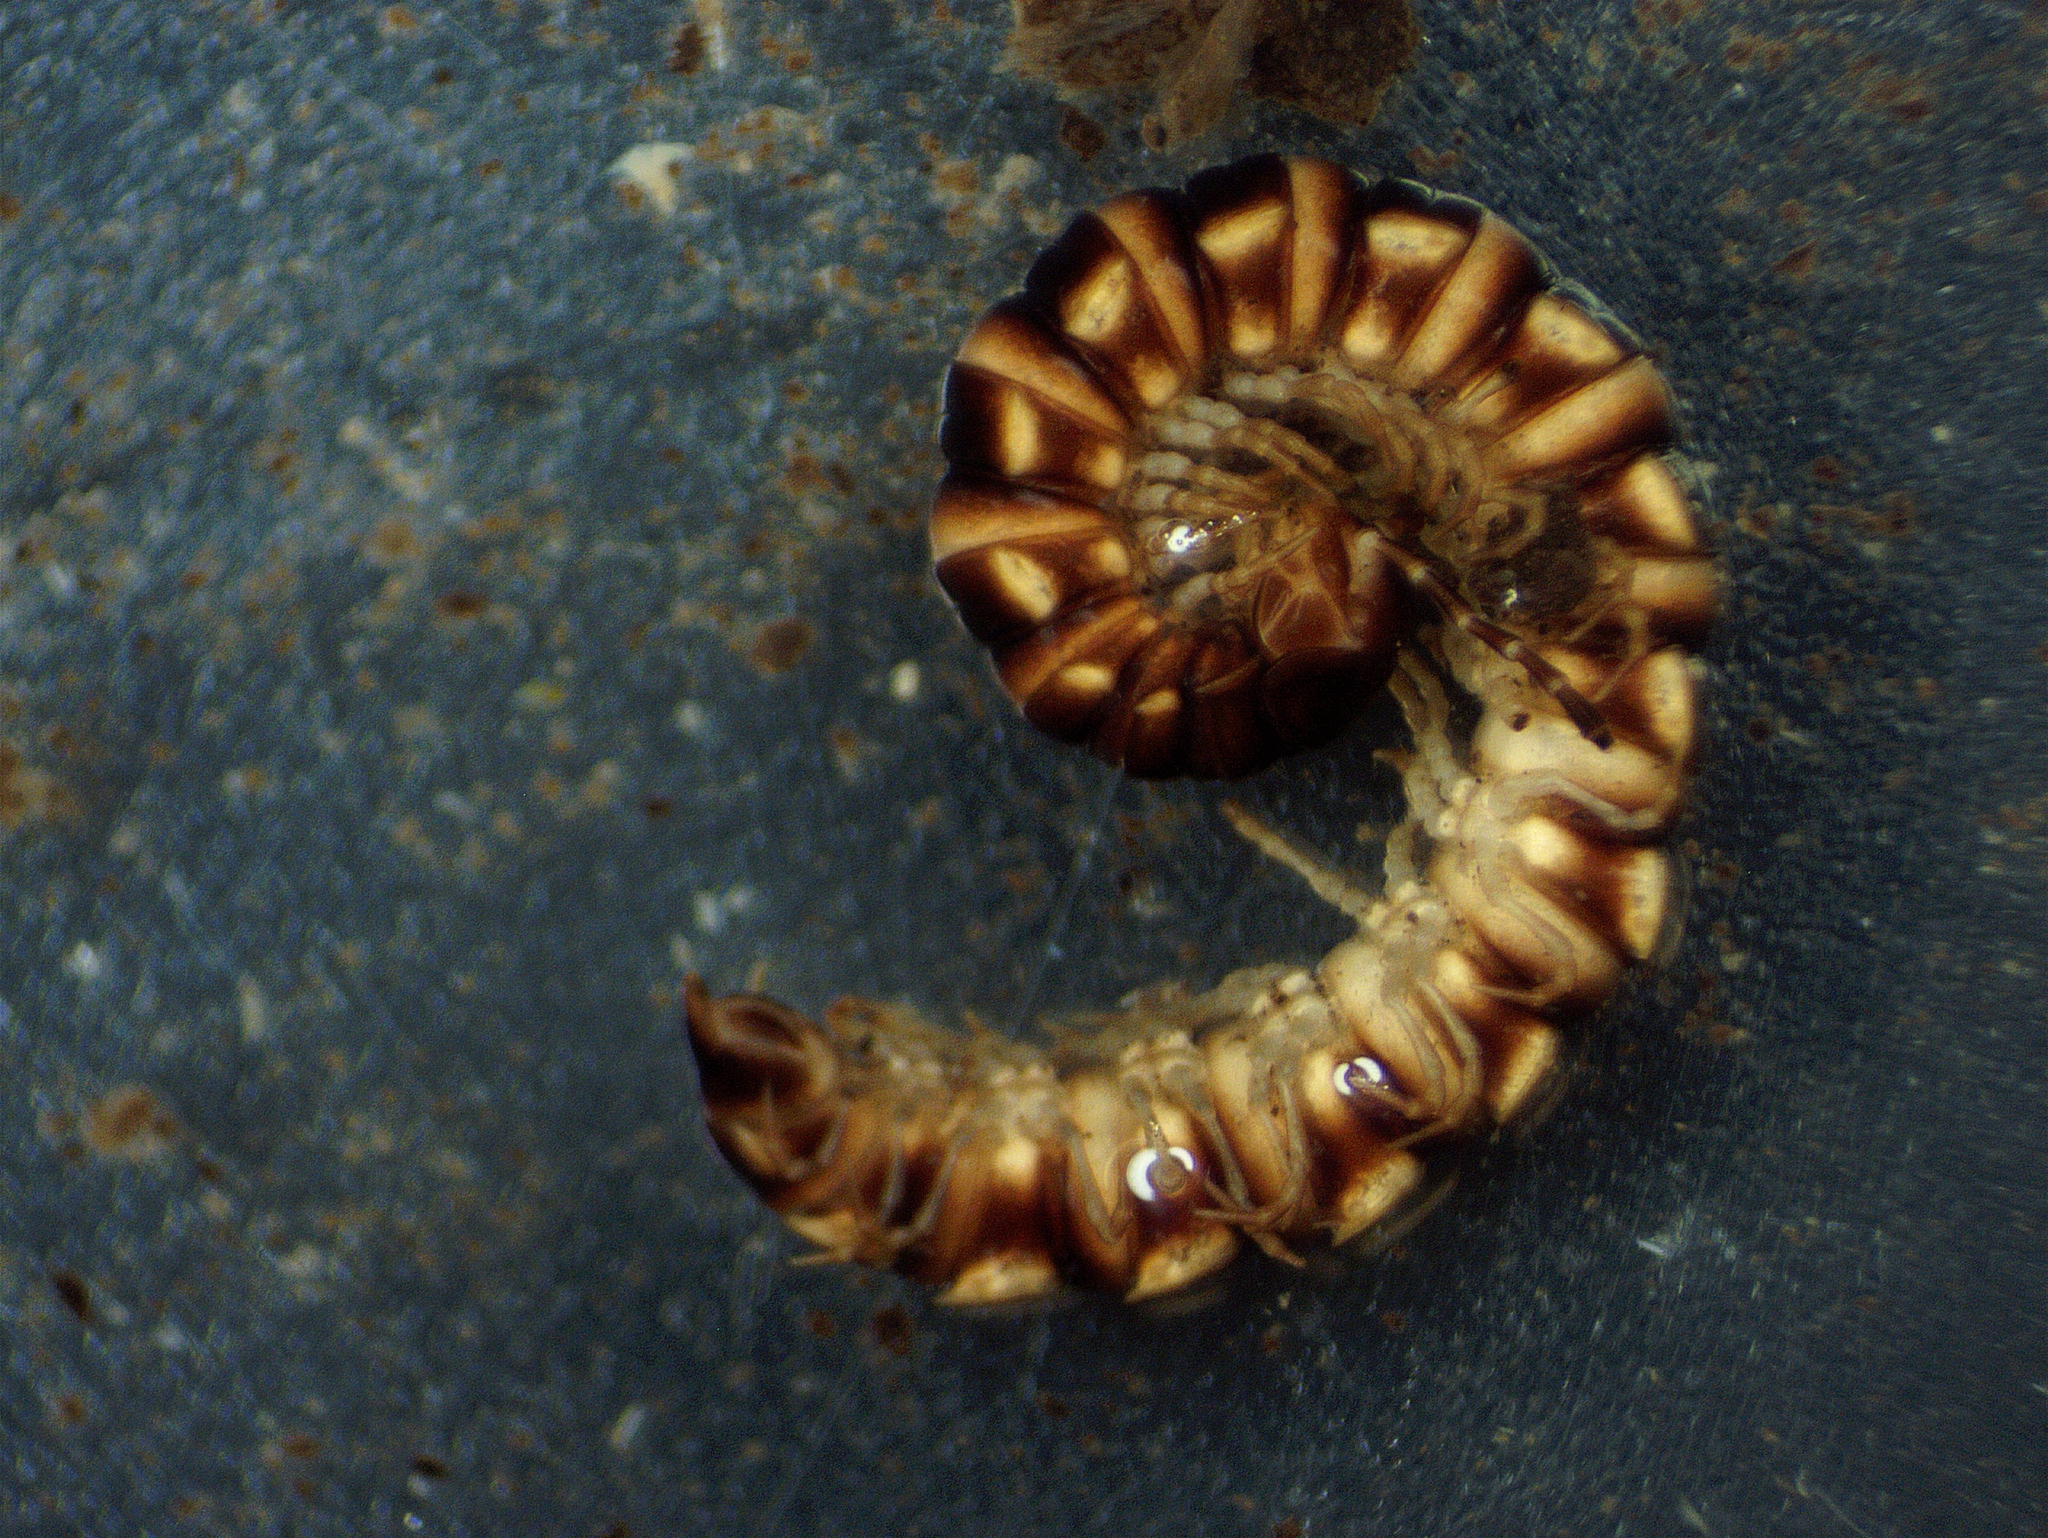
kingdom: Animalia
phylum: Arthropoda
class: Diplopoda
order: Polydesmida
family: Paradoxosomatidae
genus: Oxidus
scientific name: Oxidus gracilis
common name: Greenhouse millipede
